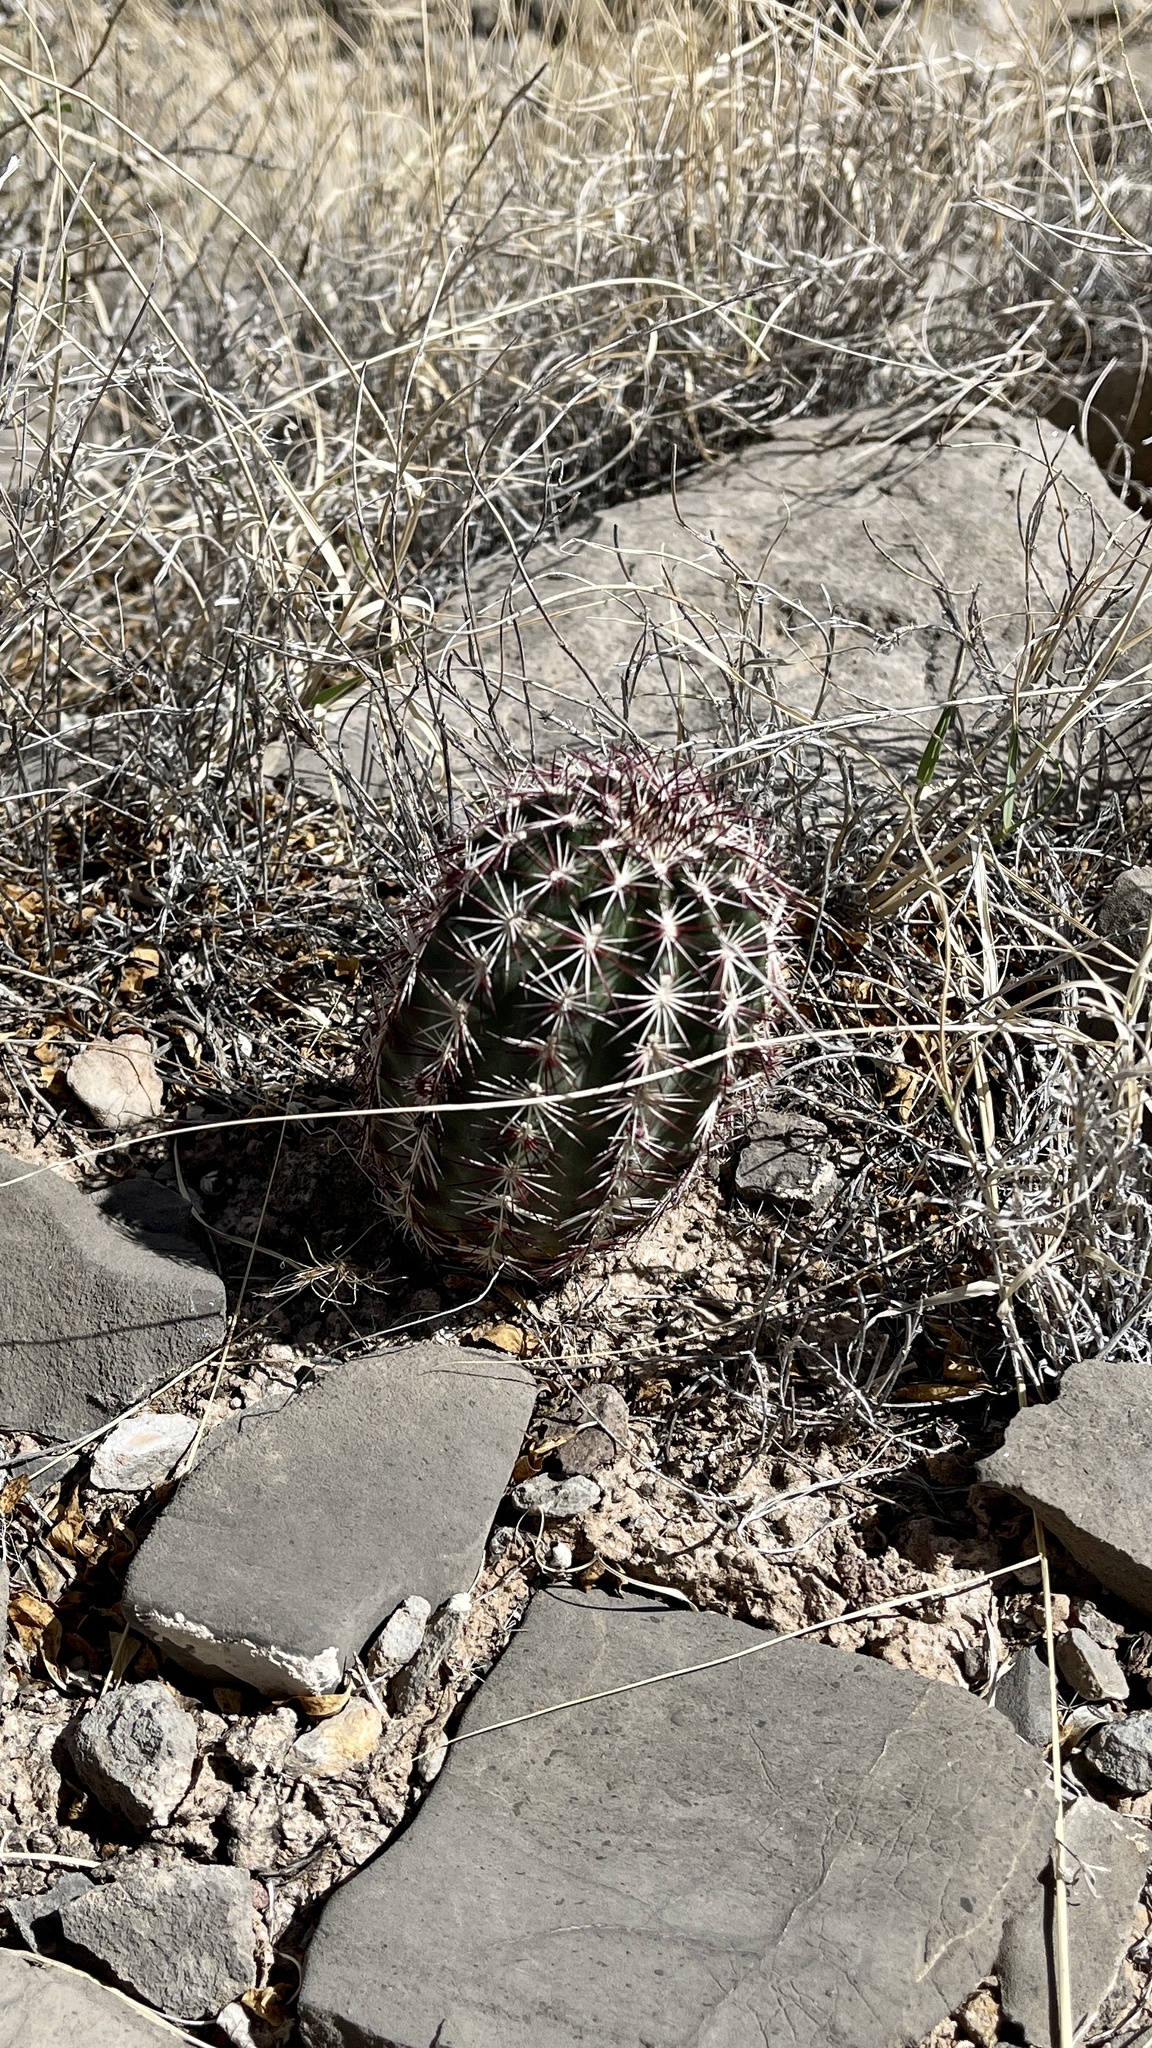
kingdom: Plantae
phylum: Tracheophyta
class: Magnoliopsida
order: Caryophyllales
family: Cactaceae
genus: Echinocereus
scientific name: Echinocereus viridiflorus
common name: Nylon hedgehog cactus
